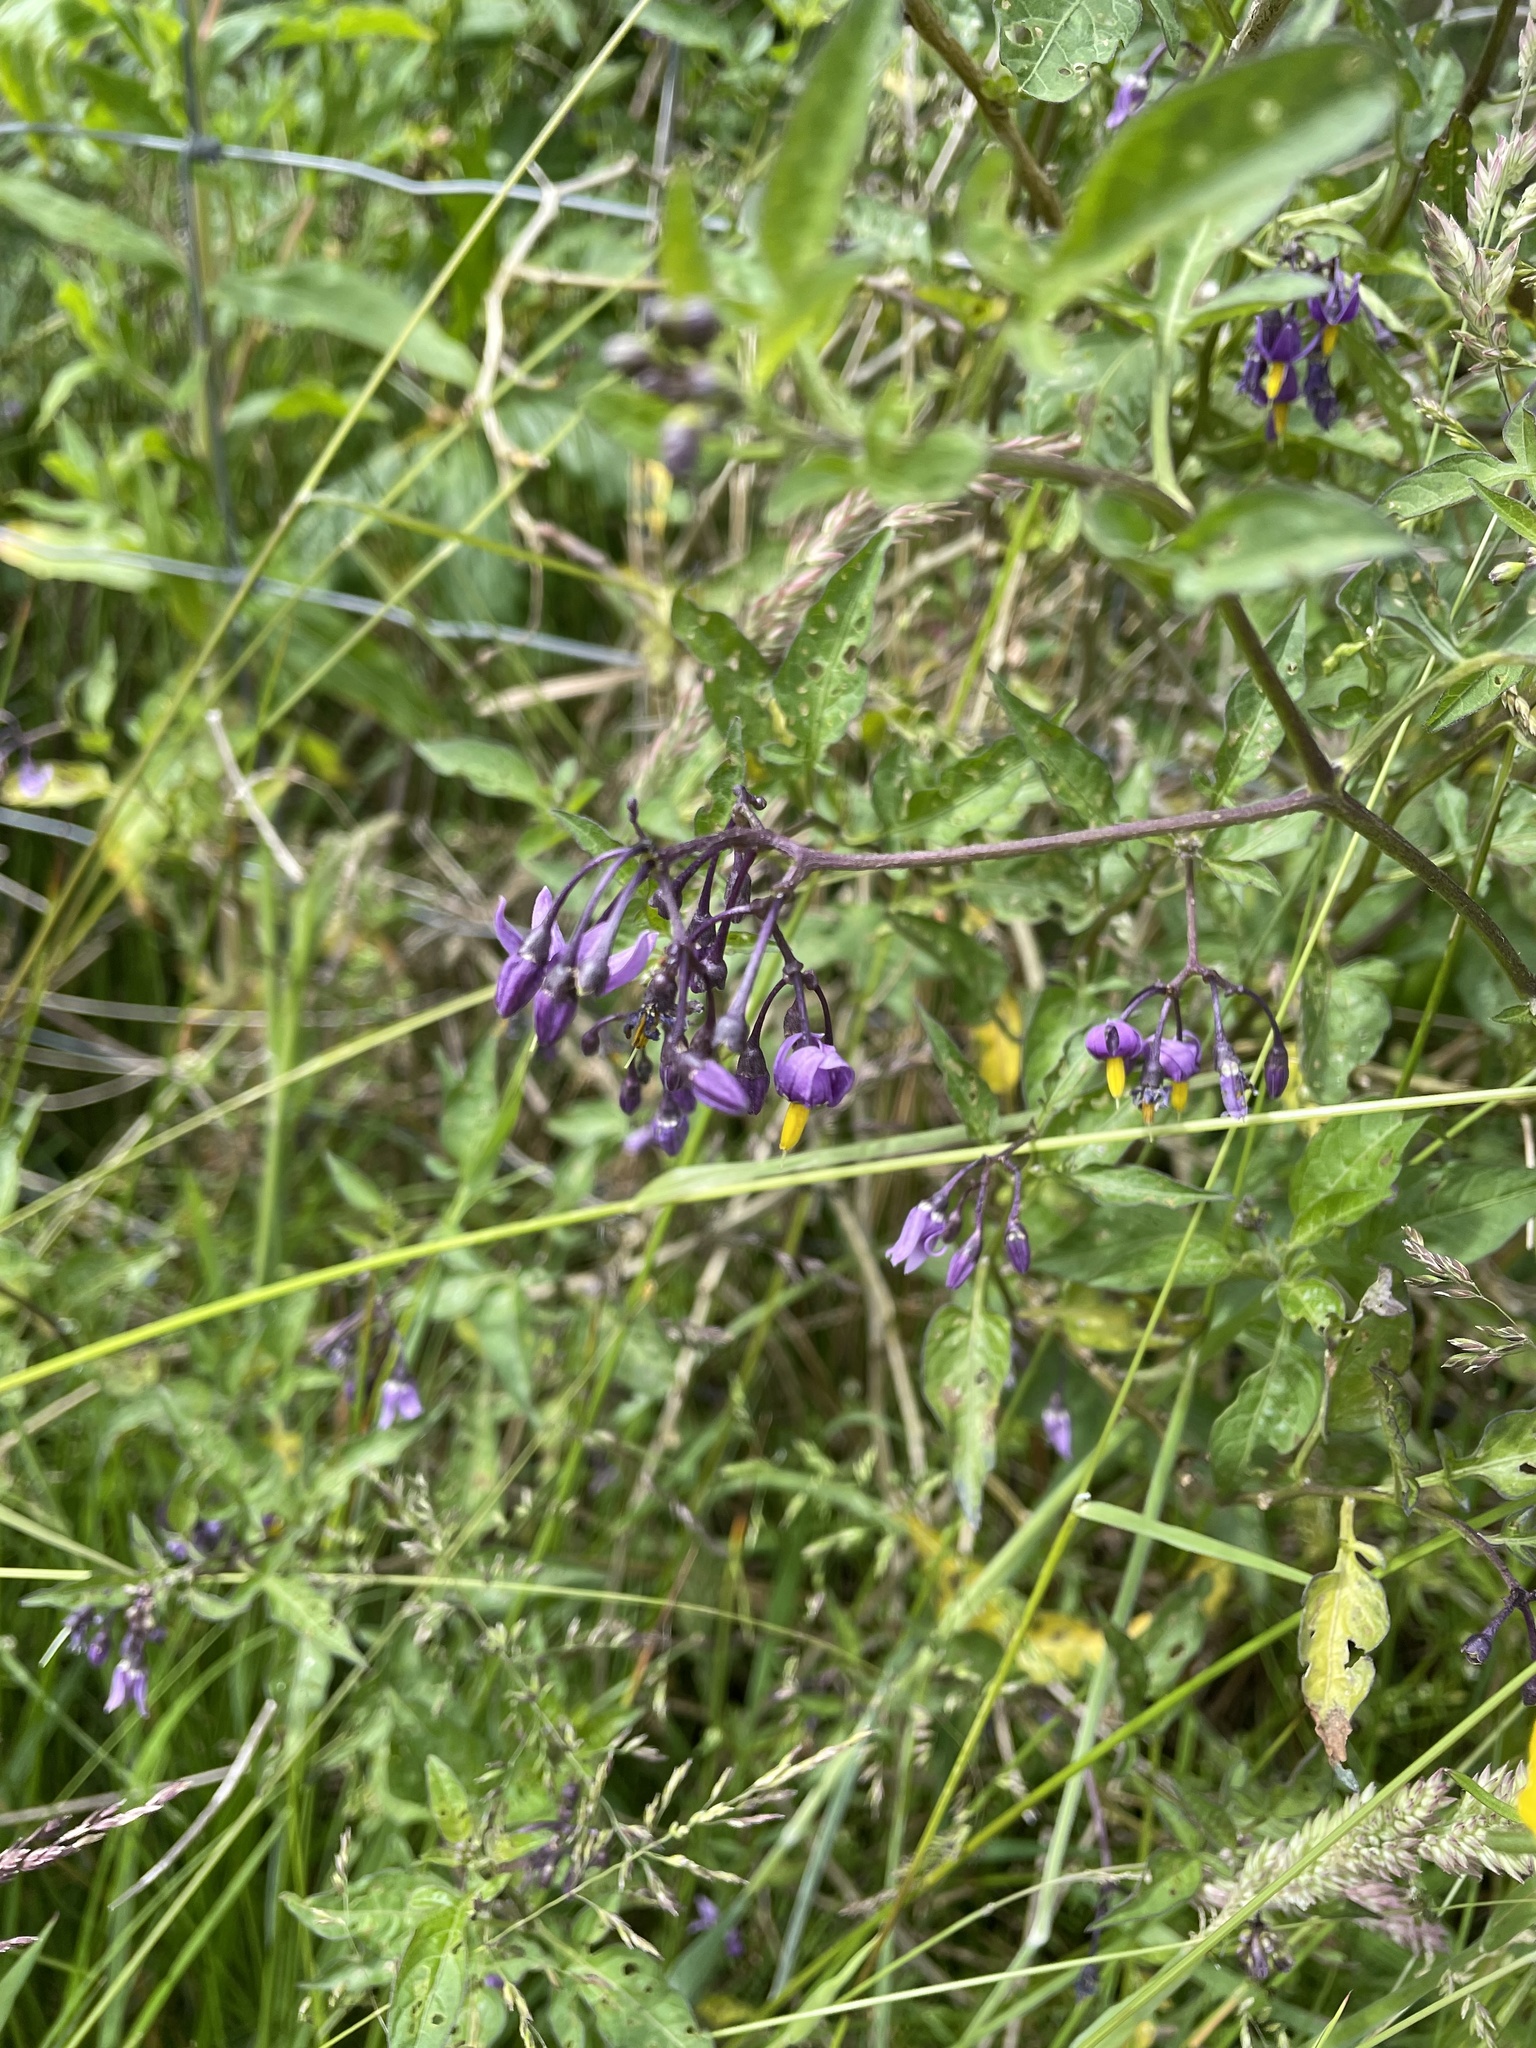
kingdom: Plantae
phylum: Tracheophyta
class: Magnoliopsida
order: Solanales
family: Solanaceae
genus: Solanum
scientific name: Solanum dulcamara
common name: Climbing nightshade
